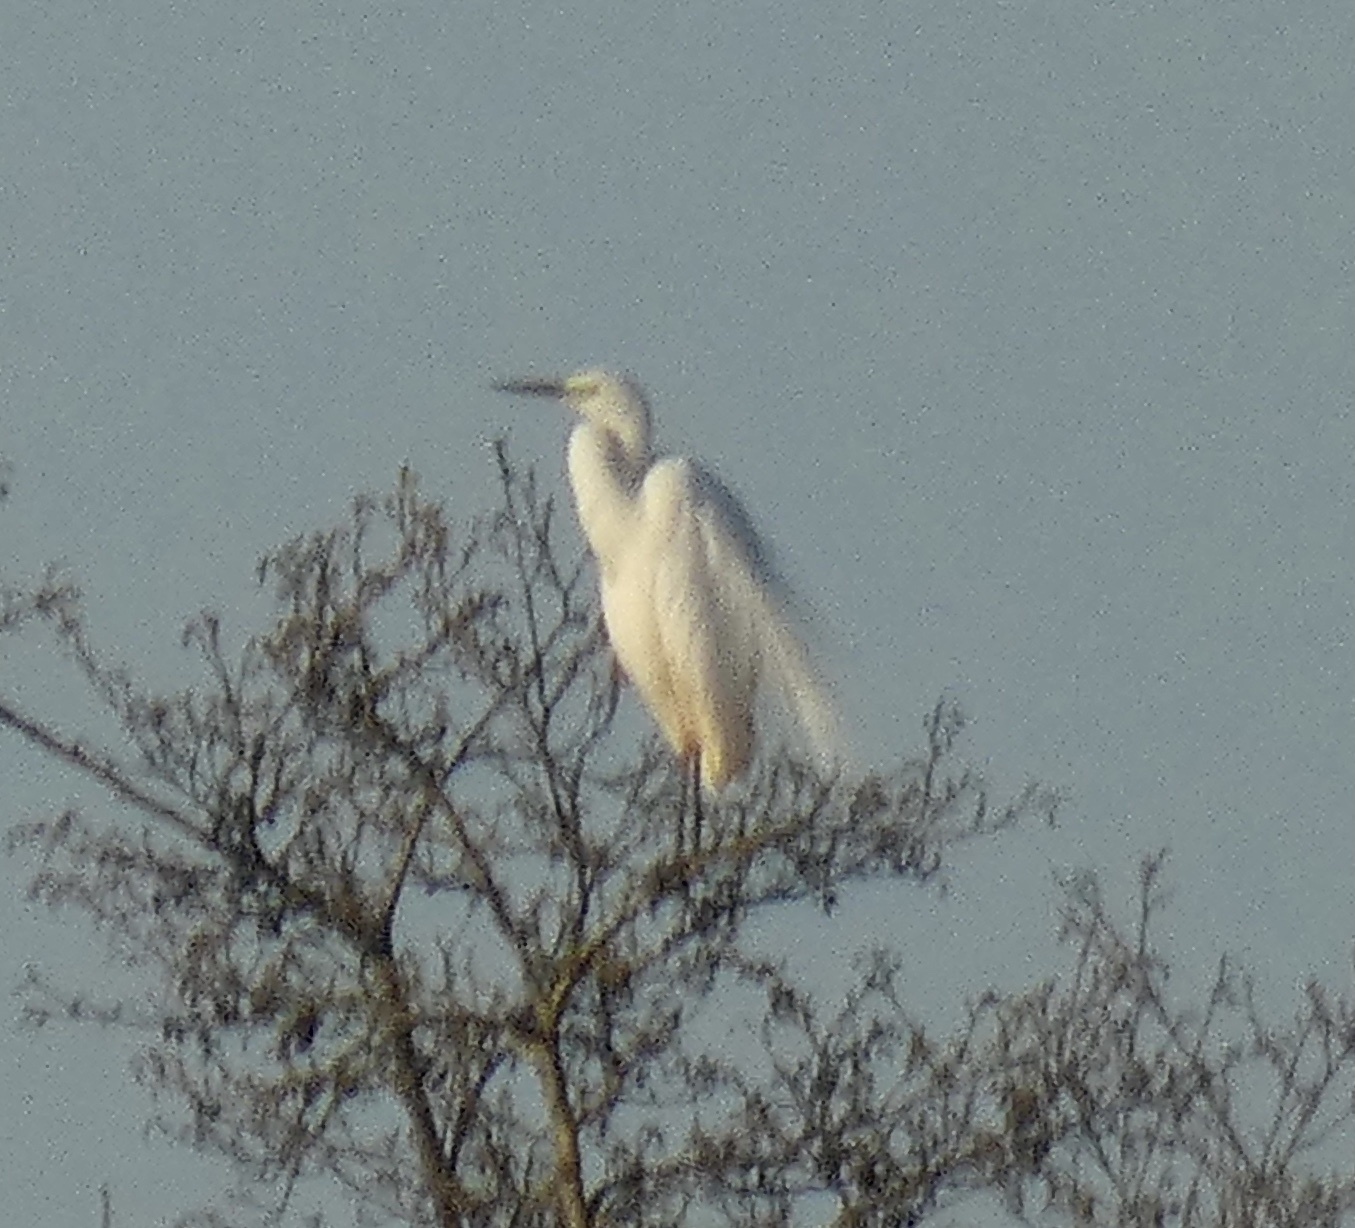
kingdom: Animalia
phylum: Chordata
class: Aves
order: Pelecaniformes
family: Ardeidae
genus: Ardea
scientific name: Ardea alba
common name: Great egret
